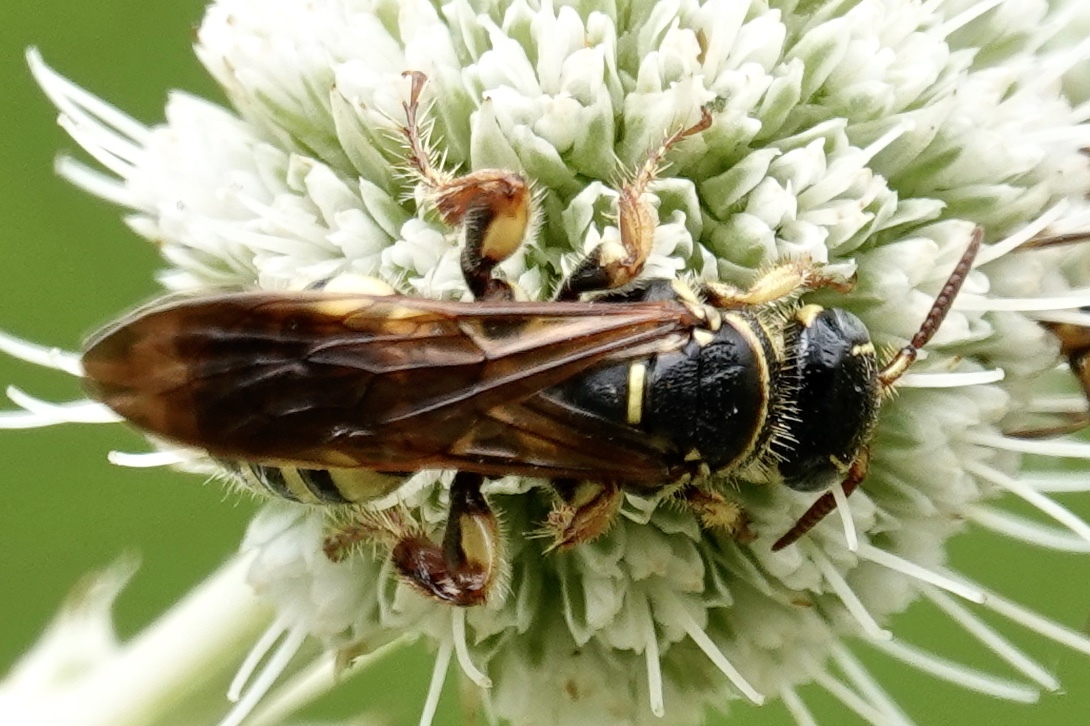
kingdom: Animalia
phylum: Arthropoda
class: Insecta
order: Hymenoptera
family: Tiphiidae
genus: Myzinum
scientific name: Myzinum quinquecinctum
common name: Five-banded thynnid wasp
